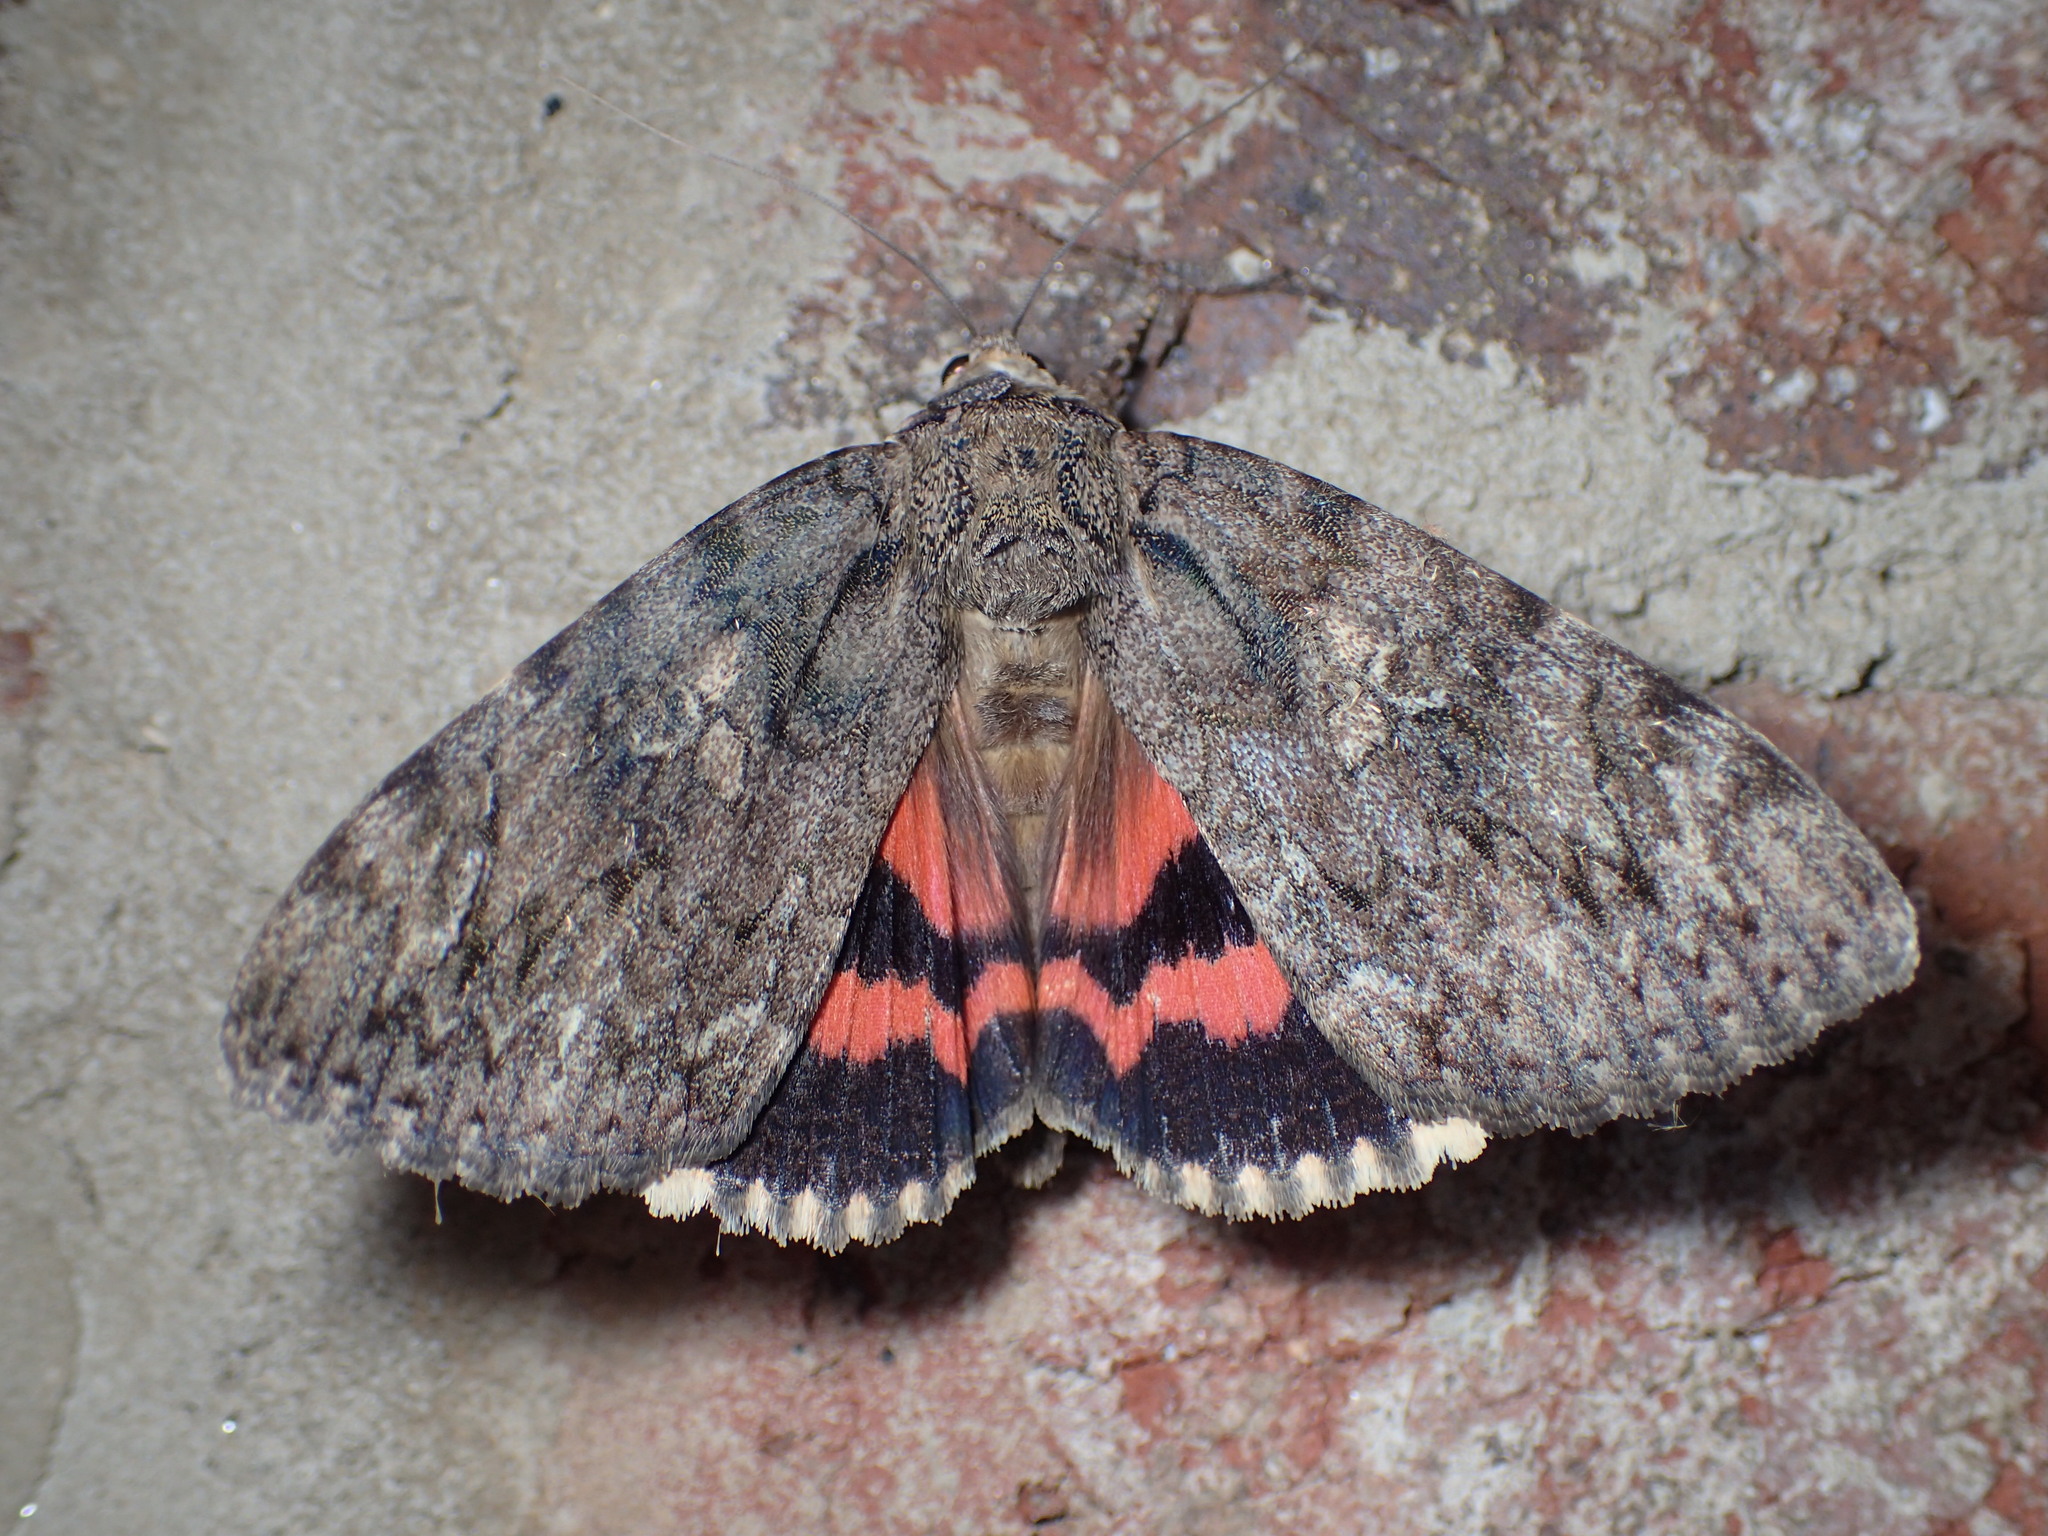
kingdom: Animalia
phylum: Arthropoda
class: Insecta
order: Lepidoptera
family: Erebidae
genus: Catocala
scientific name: Catocala ilia
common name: Ilia underwing
